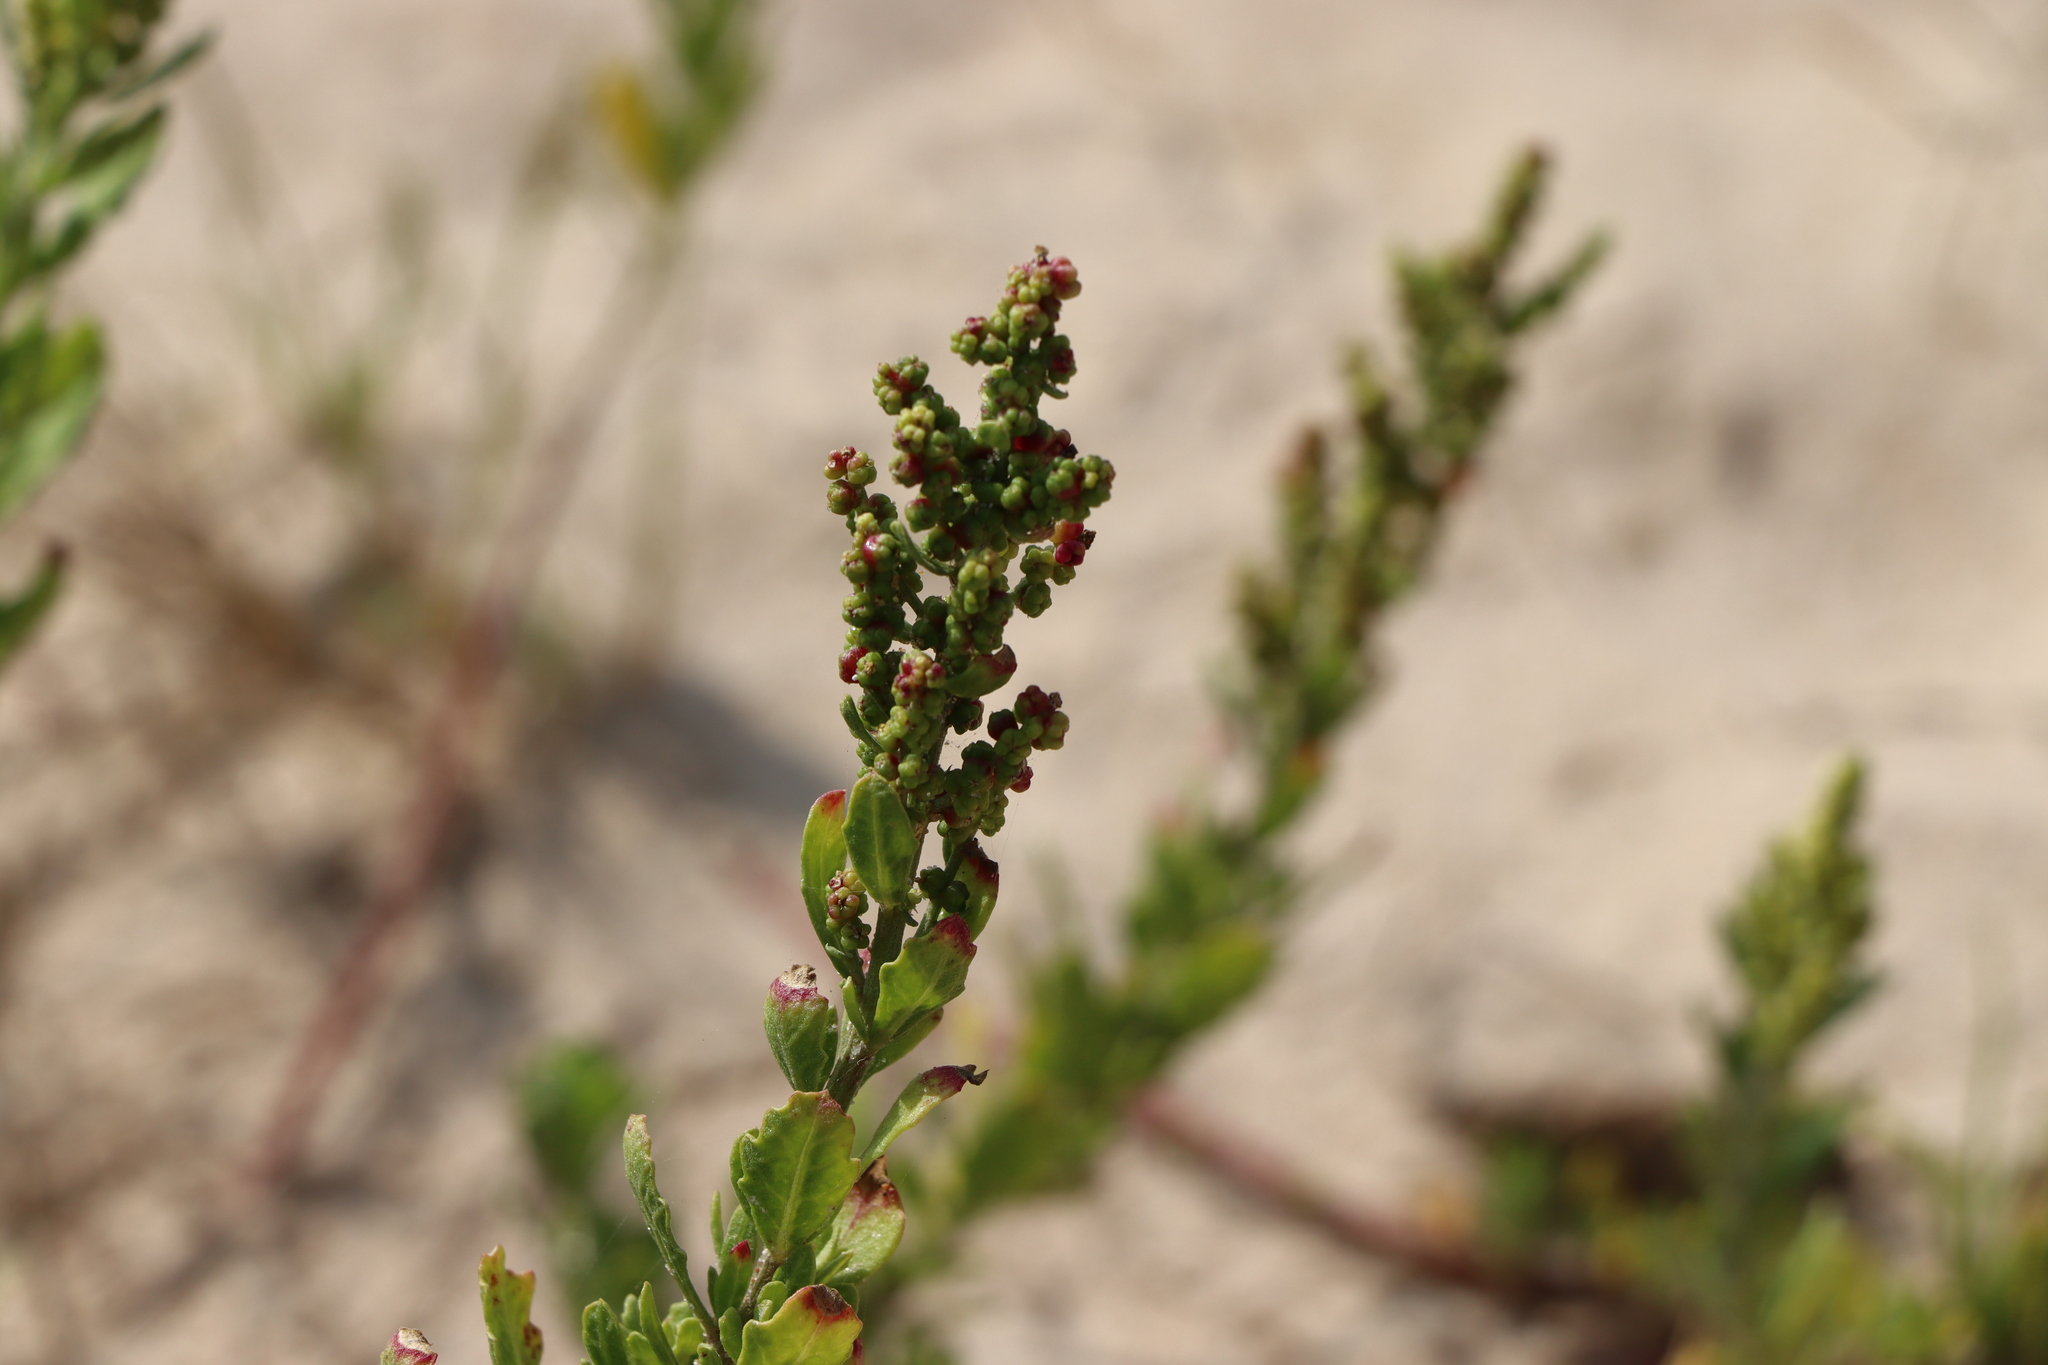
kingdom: Plantae
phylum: Tracheophyta
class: Magnoliopsida
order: Caryophyllales
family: Amaranthaceae
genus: Dysphania
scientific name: Dysphania retusa
